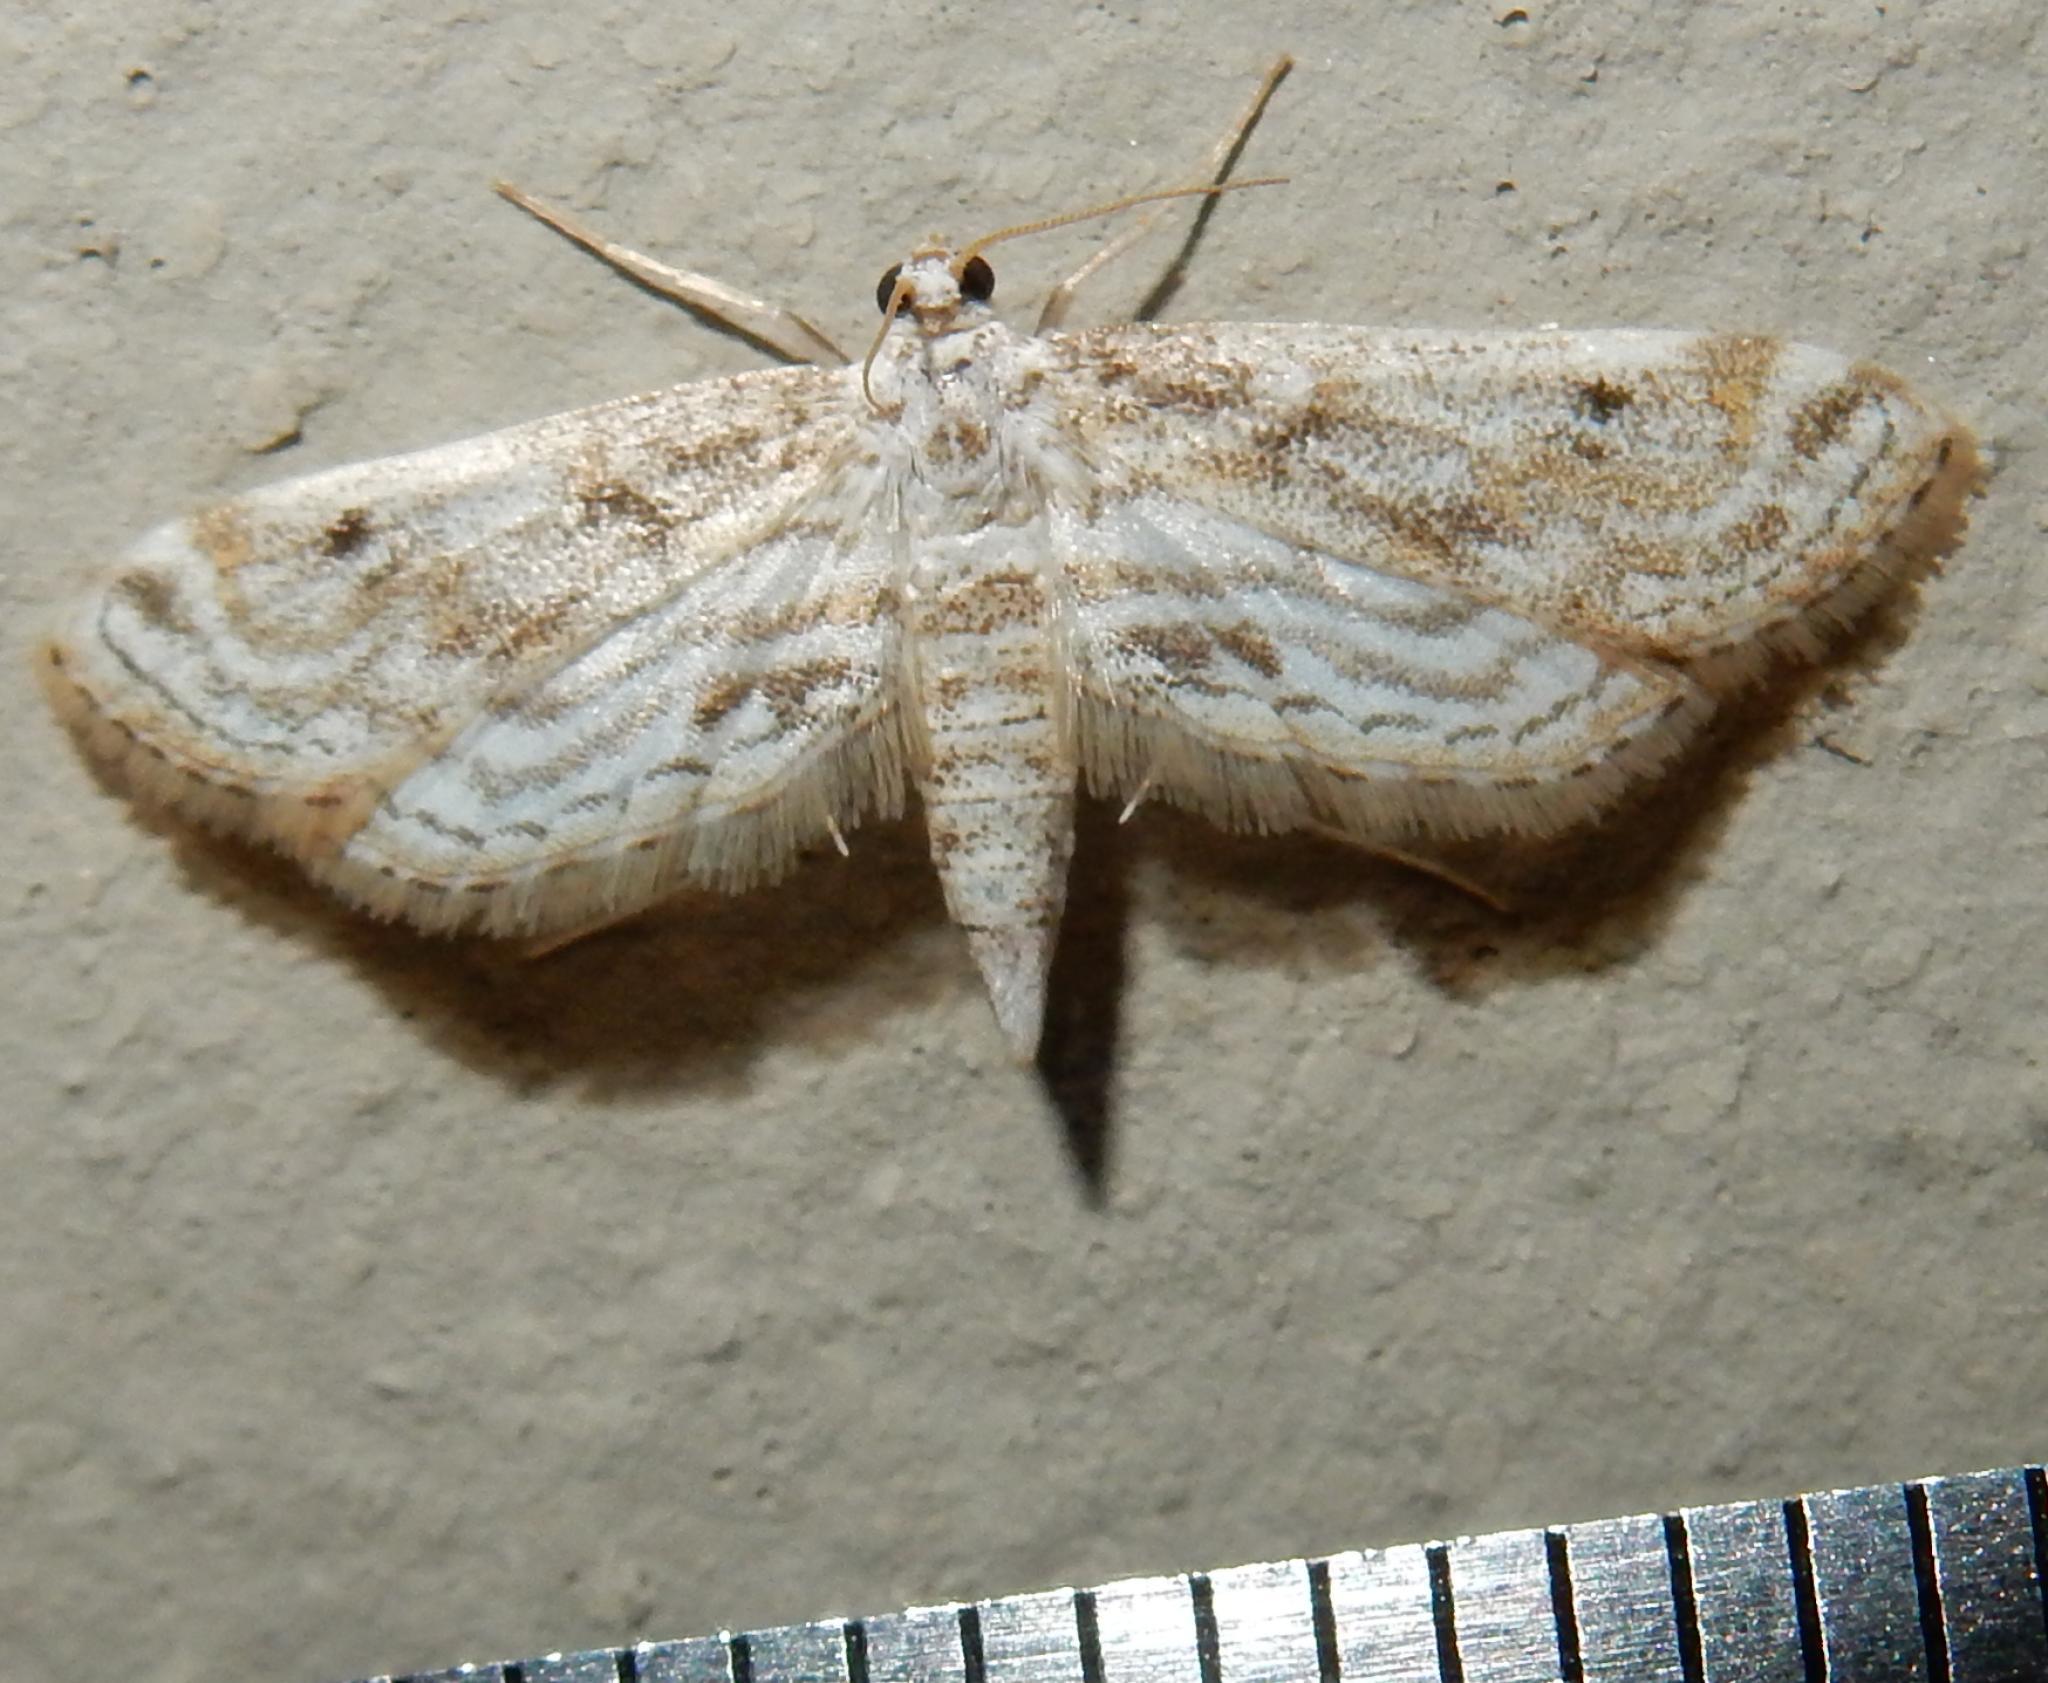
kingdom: Animalia
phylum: Arthropoda
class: Insecta
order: Lepidoptera
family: Crambidae
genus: Parapoynx
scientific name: Parapoynx fluctuosalis
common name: Moth
